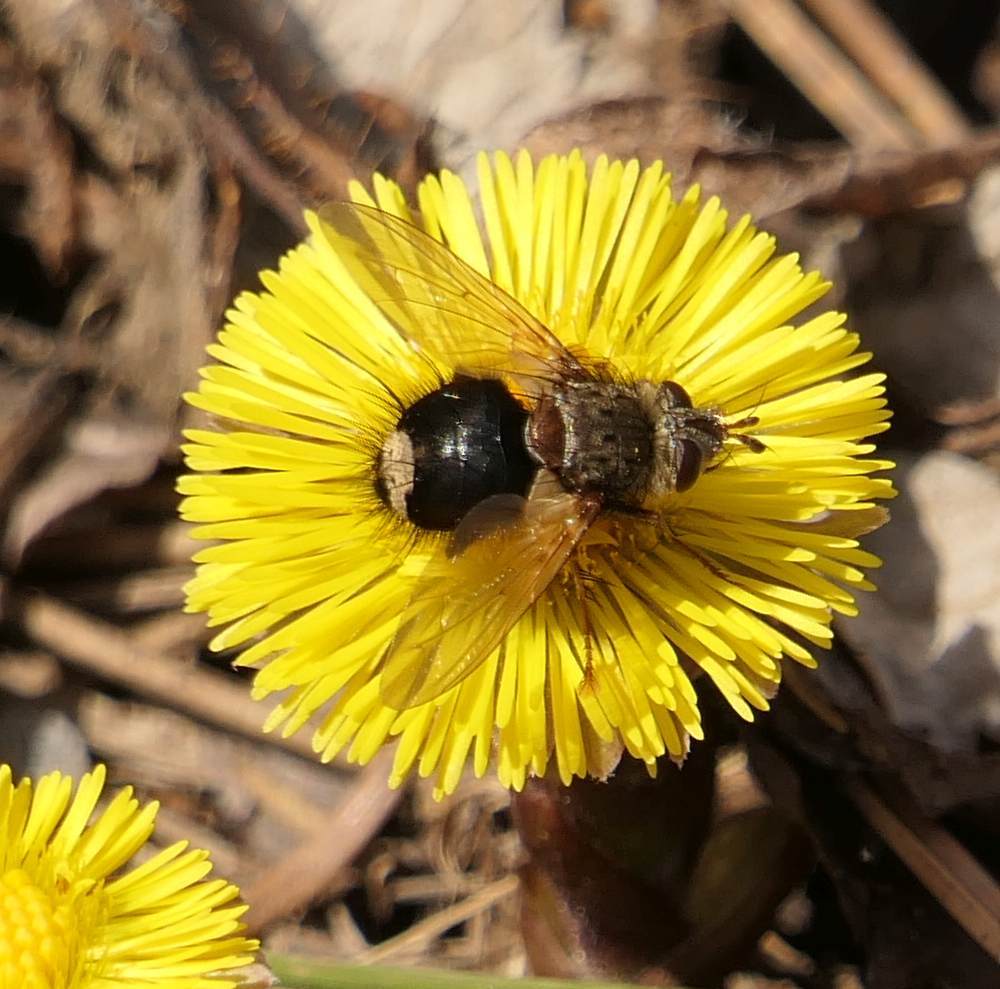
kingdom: Animalia
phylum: Arthropoda
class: Insecta
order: Diptera
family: Tachinidae
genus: Epalpus
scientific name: Epalpus signifer
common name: Early tachinid fly
